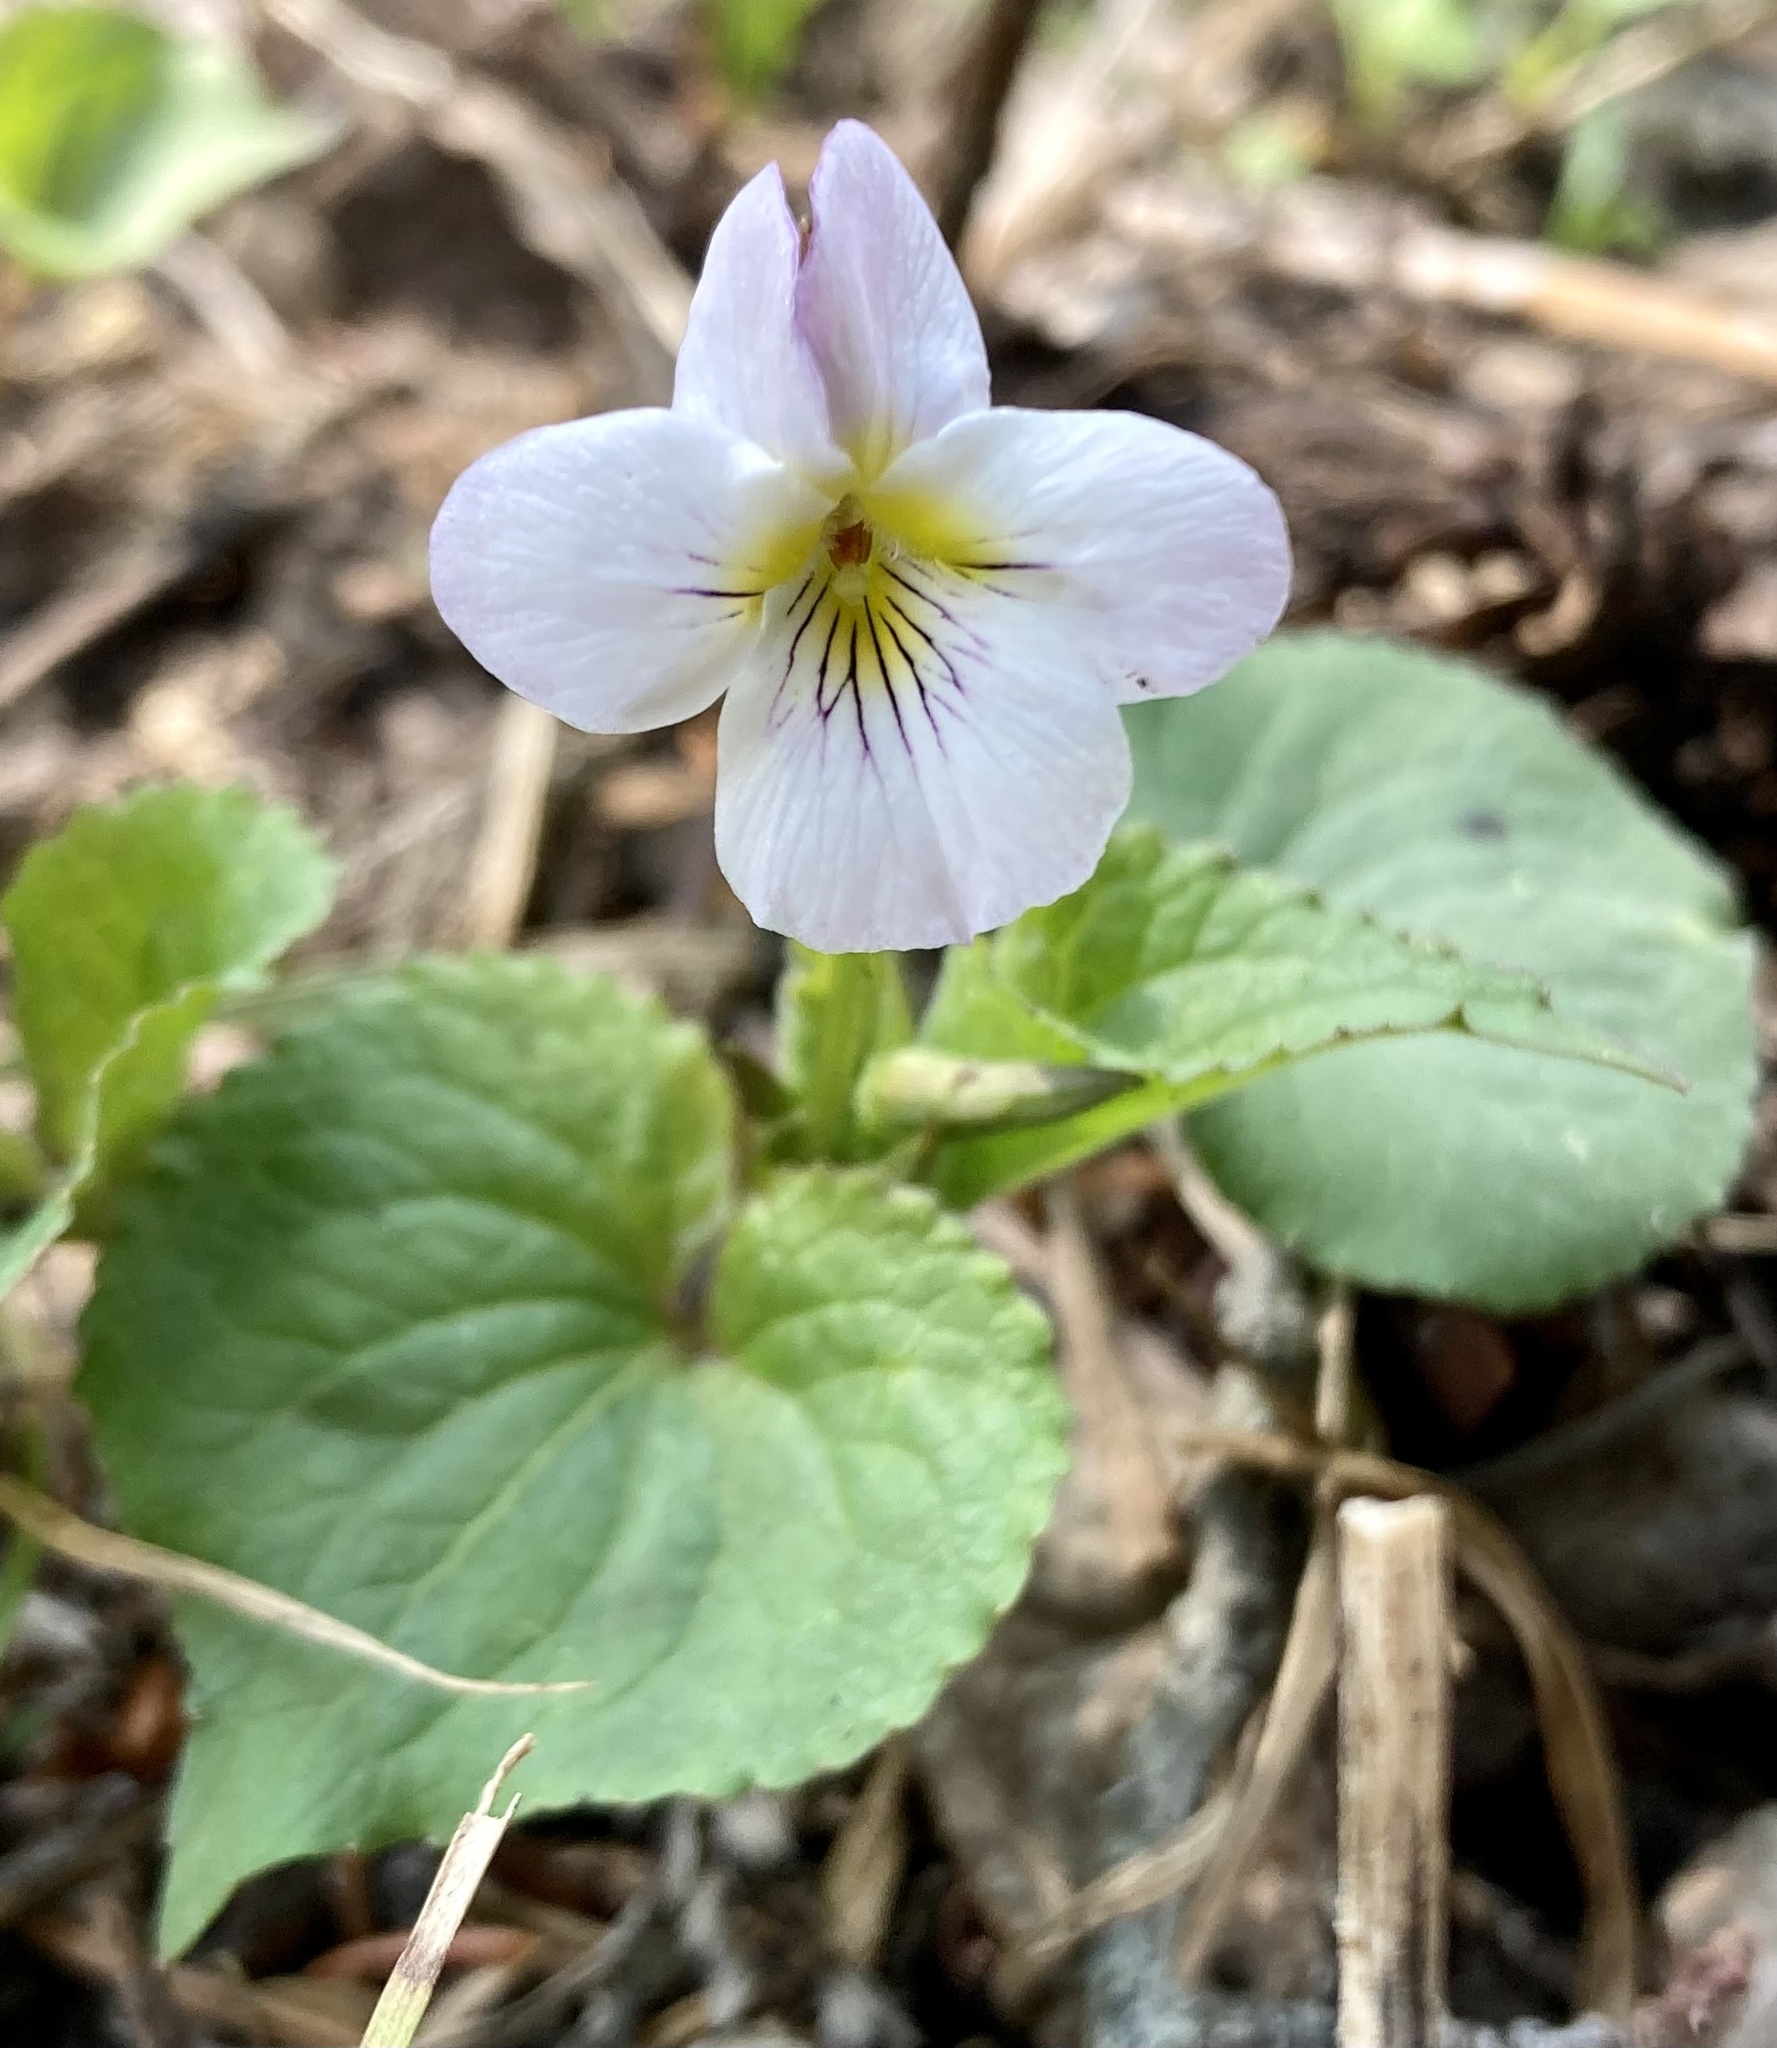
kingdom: Plantae
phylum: Tracheophyta
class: Magnoliopsida
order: Malpighiales
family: Violaceae
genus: Viola
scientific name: Viola canadensis
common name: Canada violet
